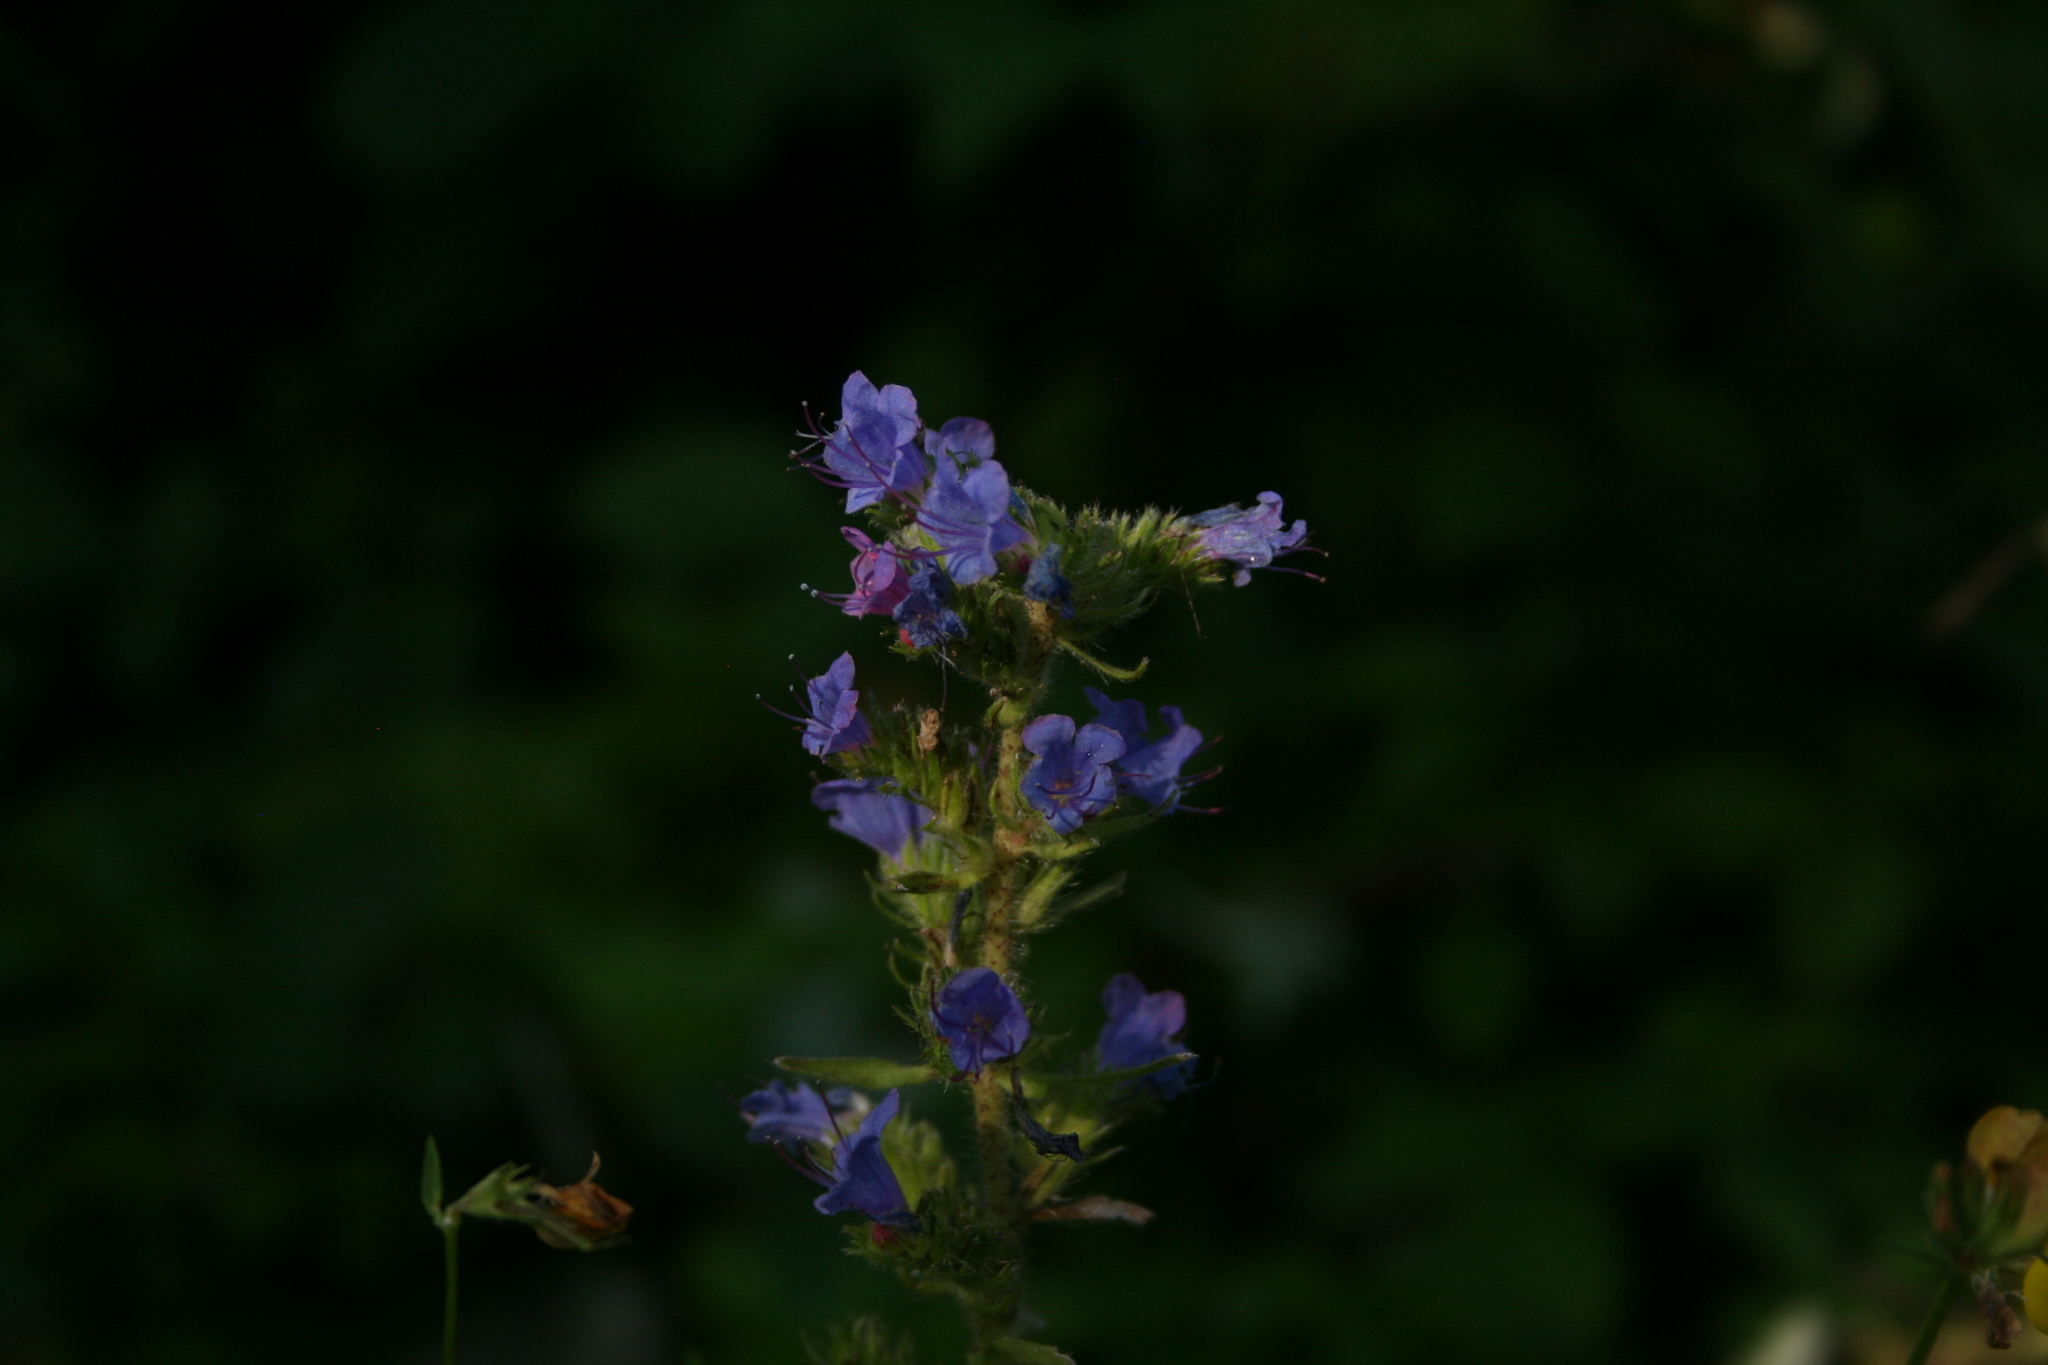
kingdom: Plantae
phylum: Tracheophyta
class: Magnoliopsida
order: Boraginales
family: Boraginaceae
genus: Echium
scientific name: Echium vulgare
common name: Common viper's bugloss
